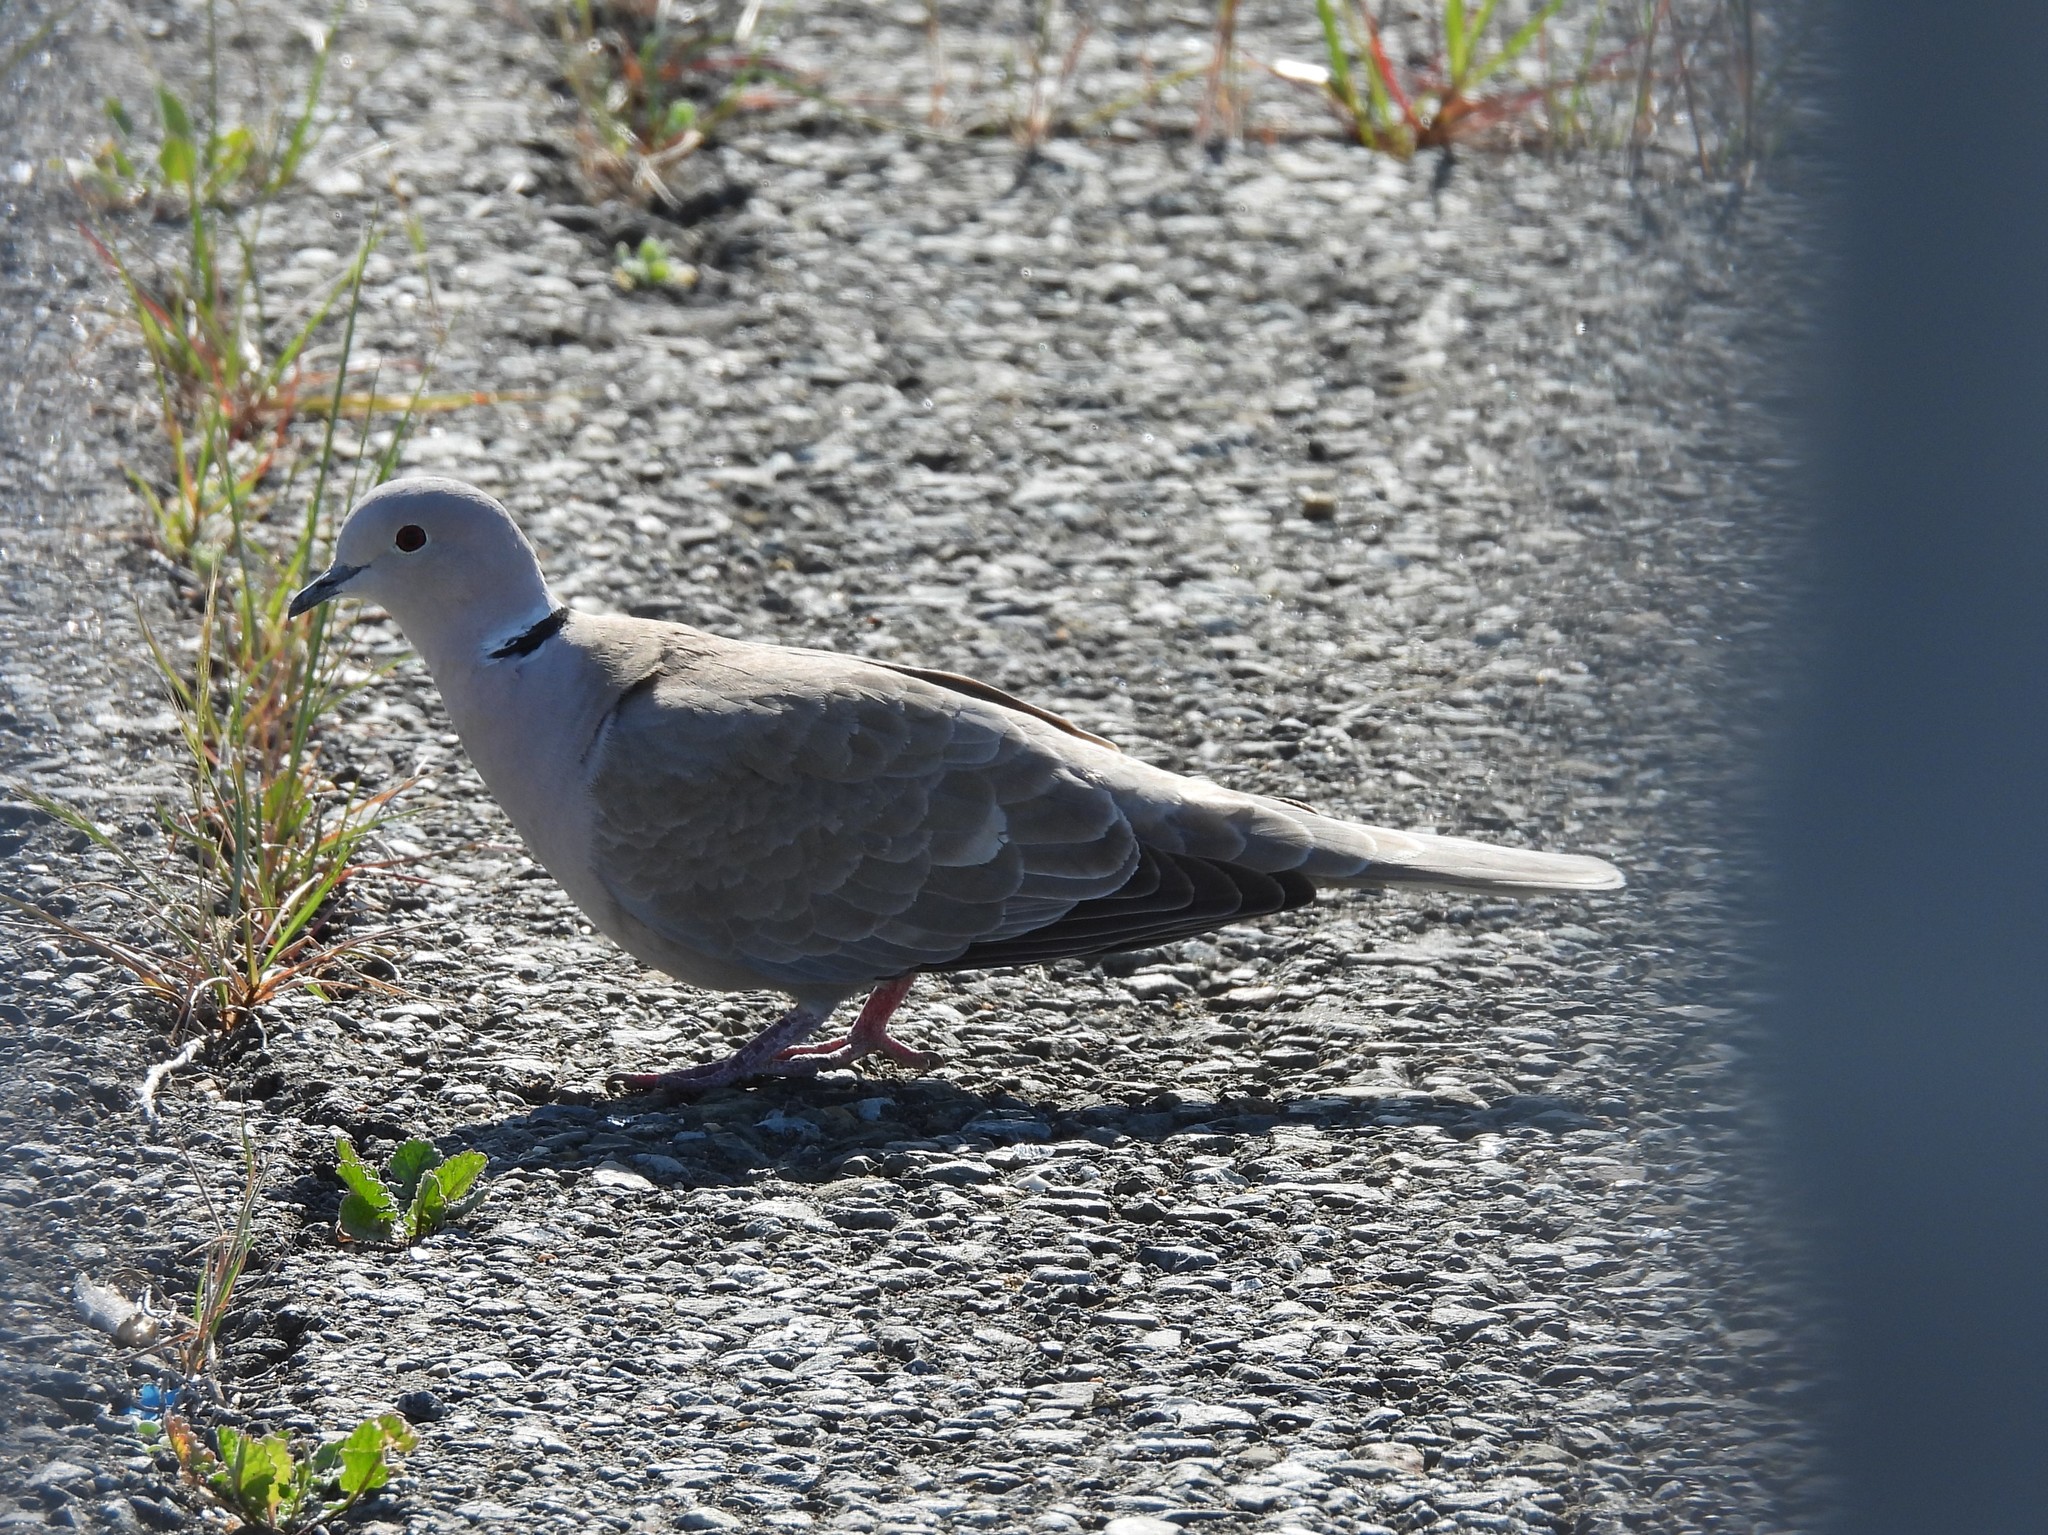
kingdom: Animalia
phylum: Chordata
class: Aves
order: Columbiformes
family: Columbidae
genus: Streptopelia
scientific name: Streptopelia decaocto
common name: Eurasian collared dove
